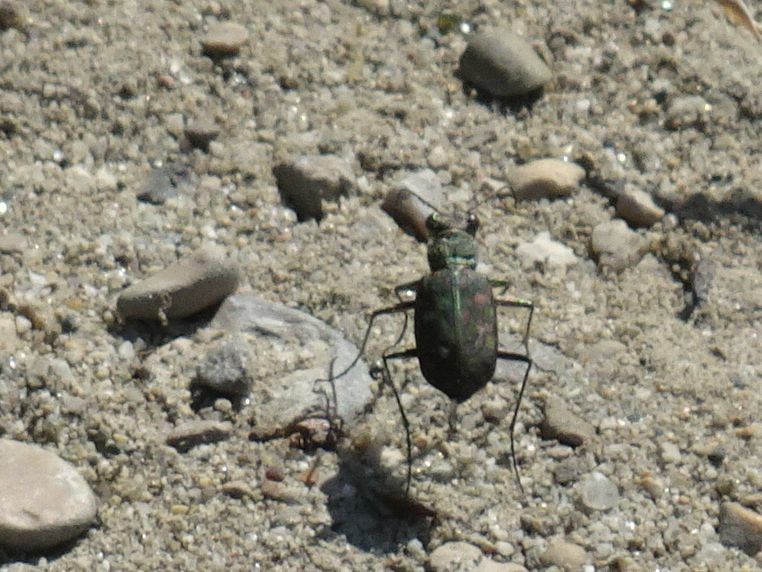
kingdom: Animalia
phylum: Arthropoda
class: Insecta
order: Coleoptera
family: Carabidae
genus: Lophyra
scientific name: Lophyra flexuosa
